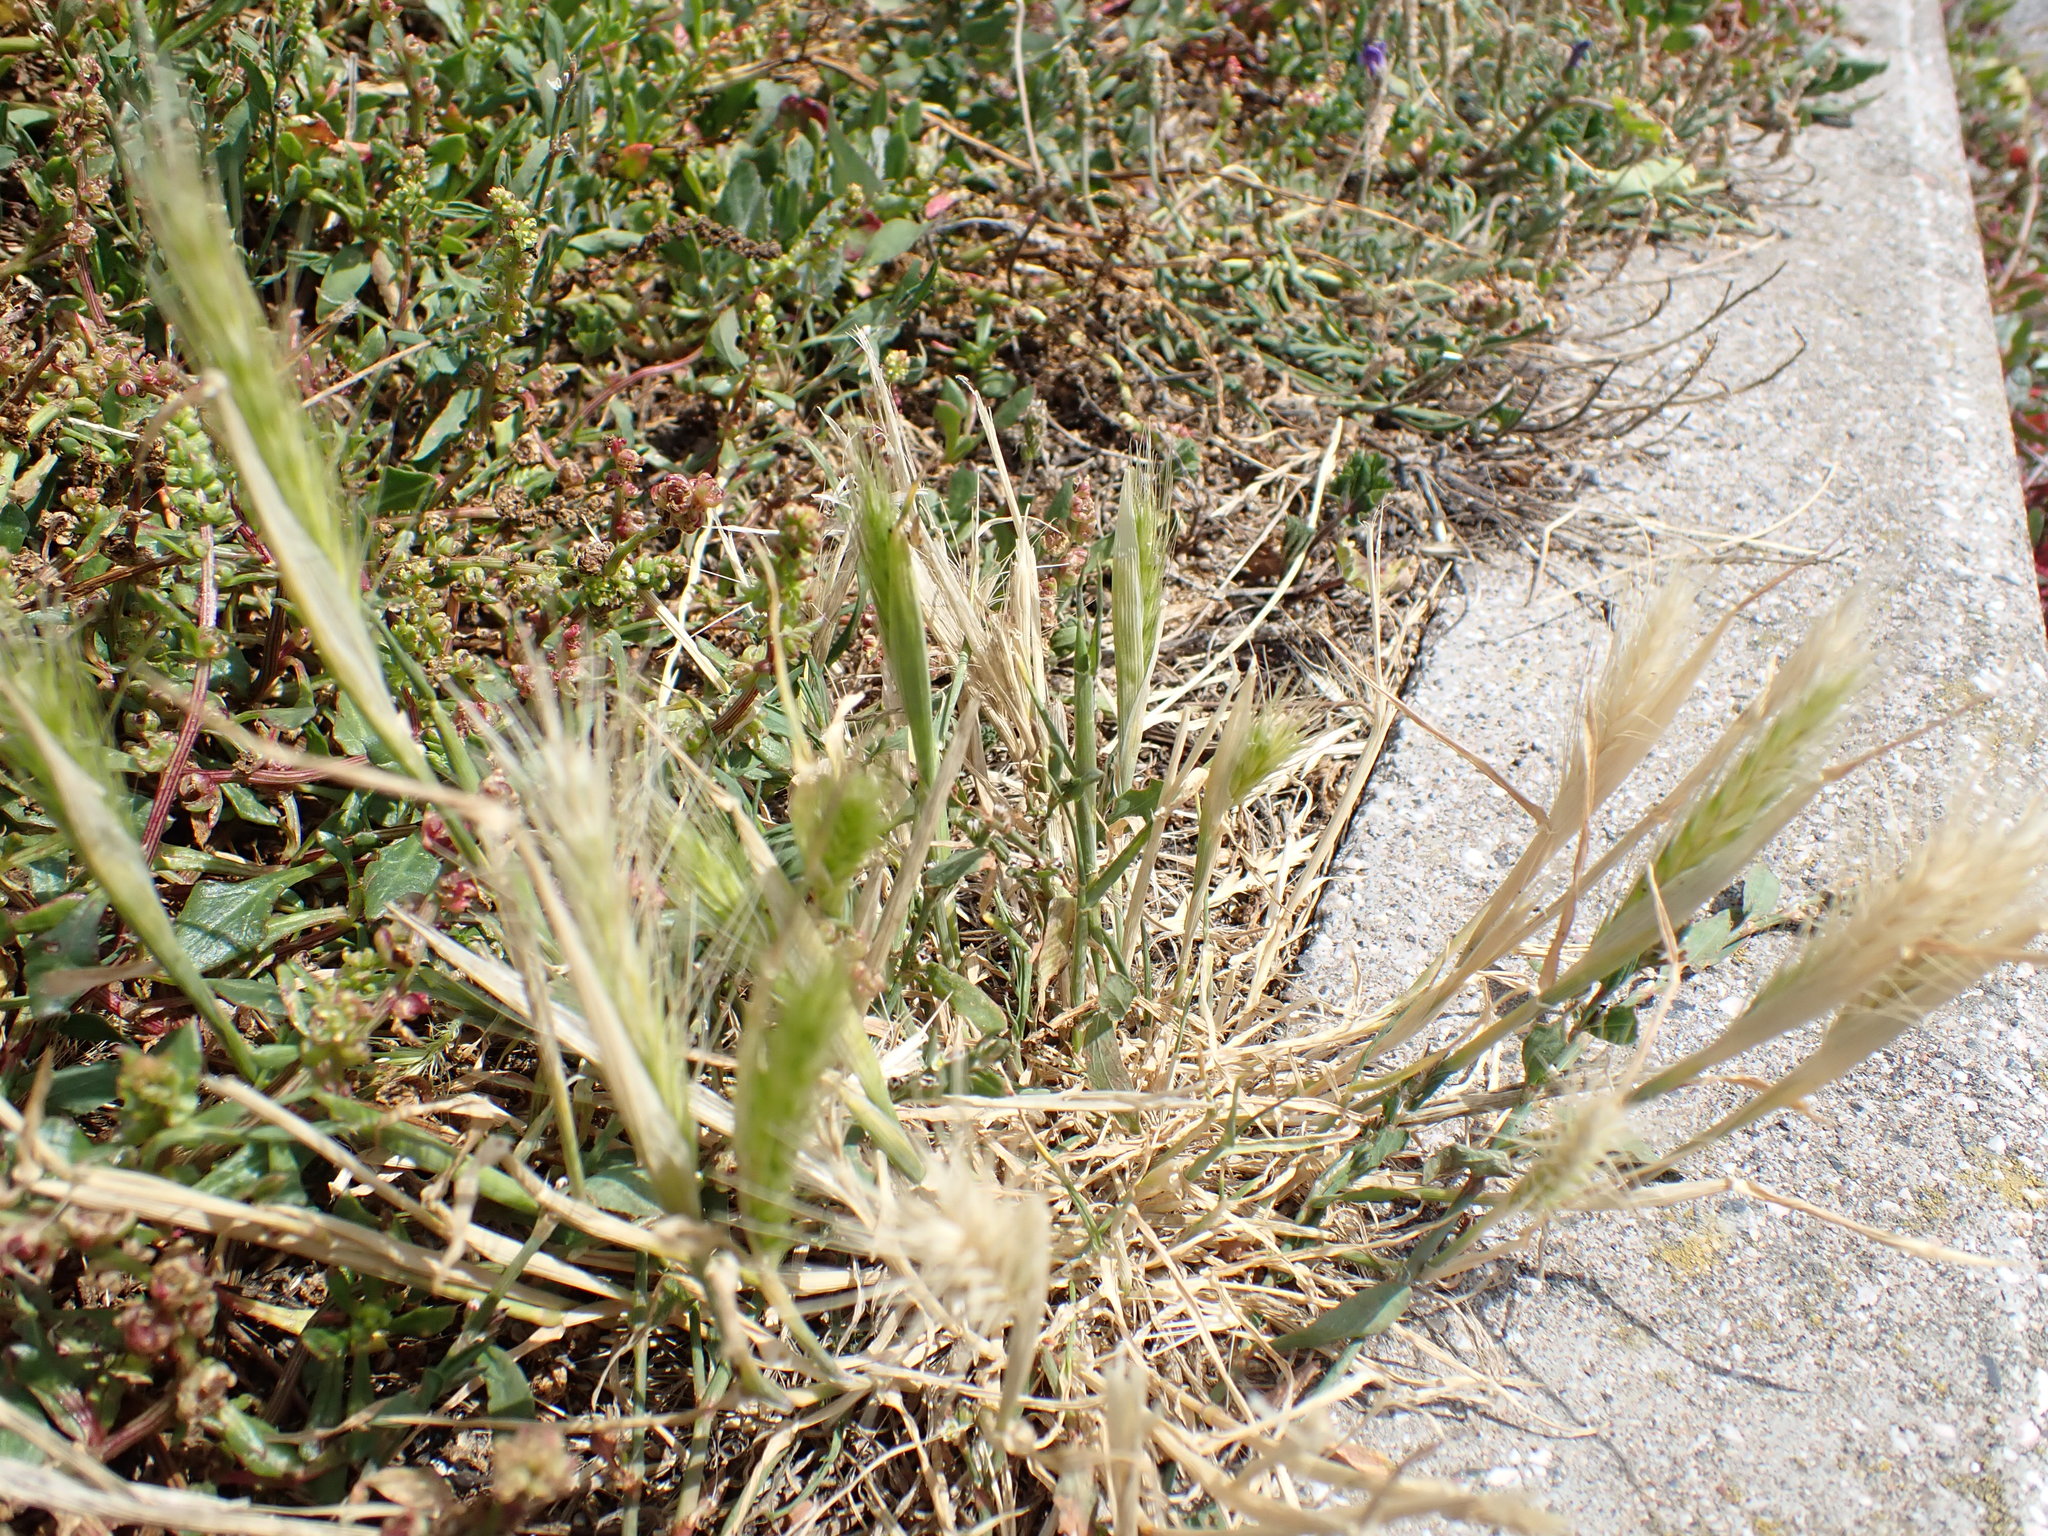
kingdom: Plantae
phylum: Tracheophyta
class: Liliopsida
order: Poales
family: Poaceae
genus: Hordeum
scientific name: Hordeum murinum
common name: Wall barley
